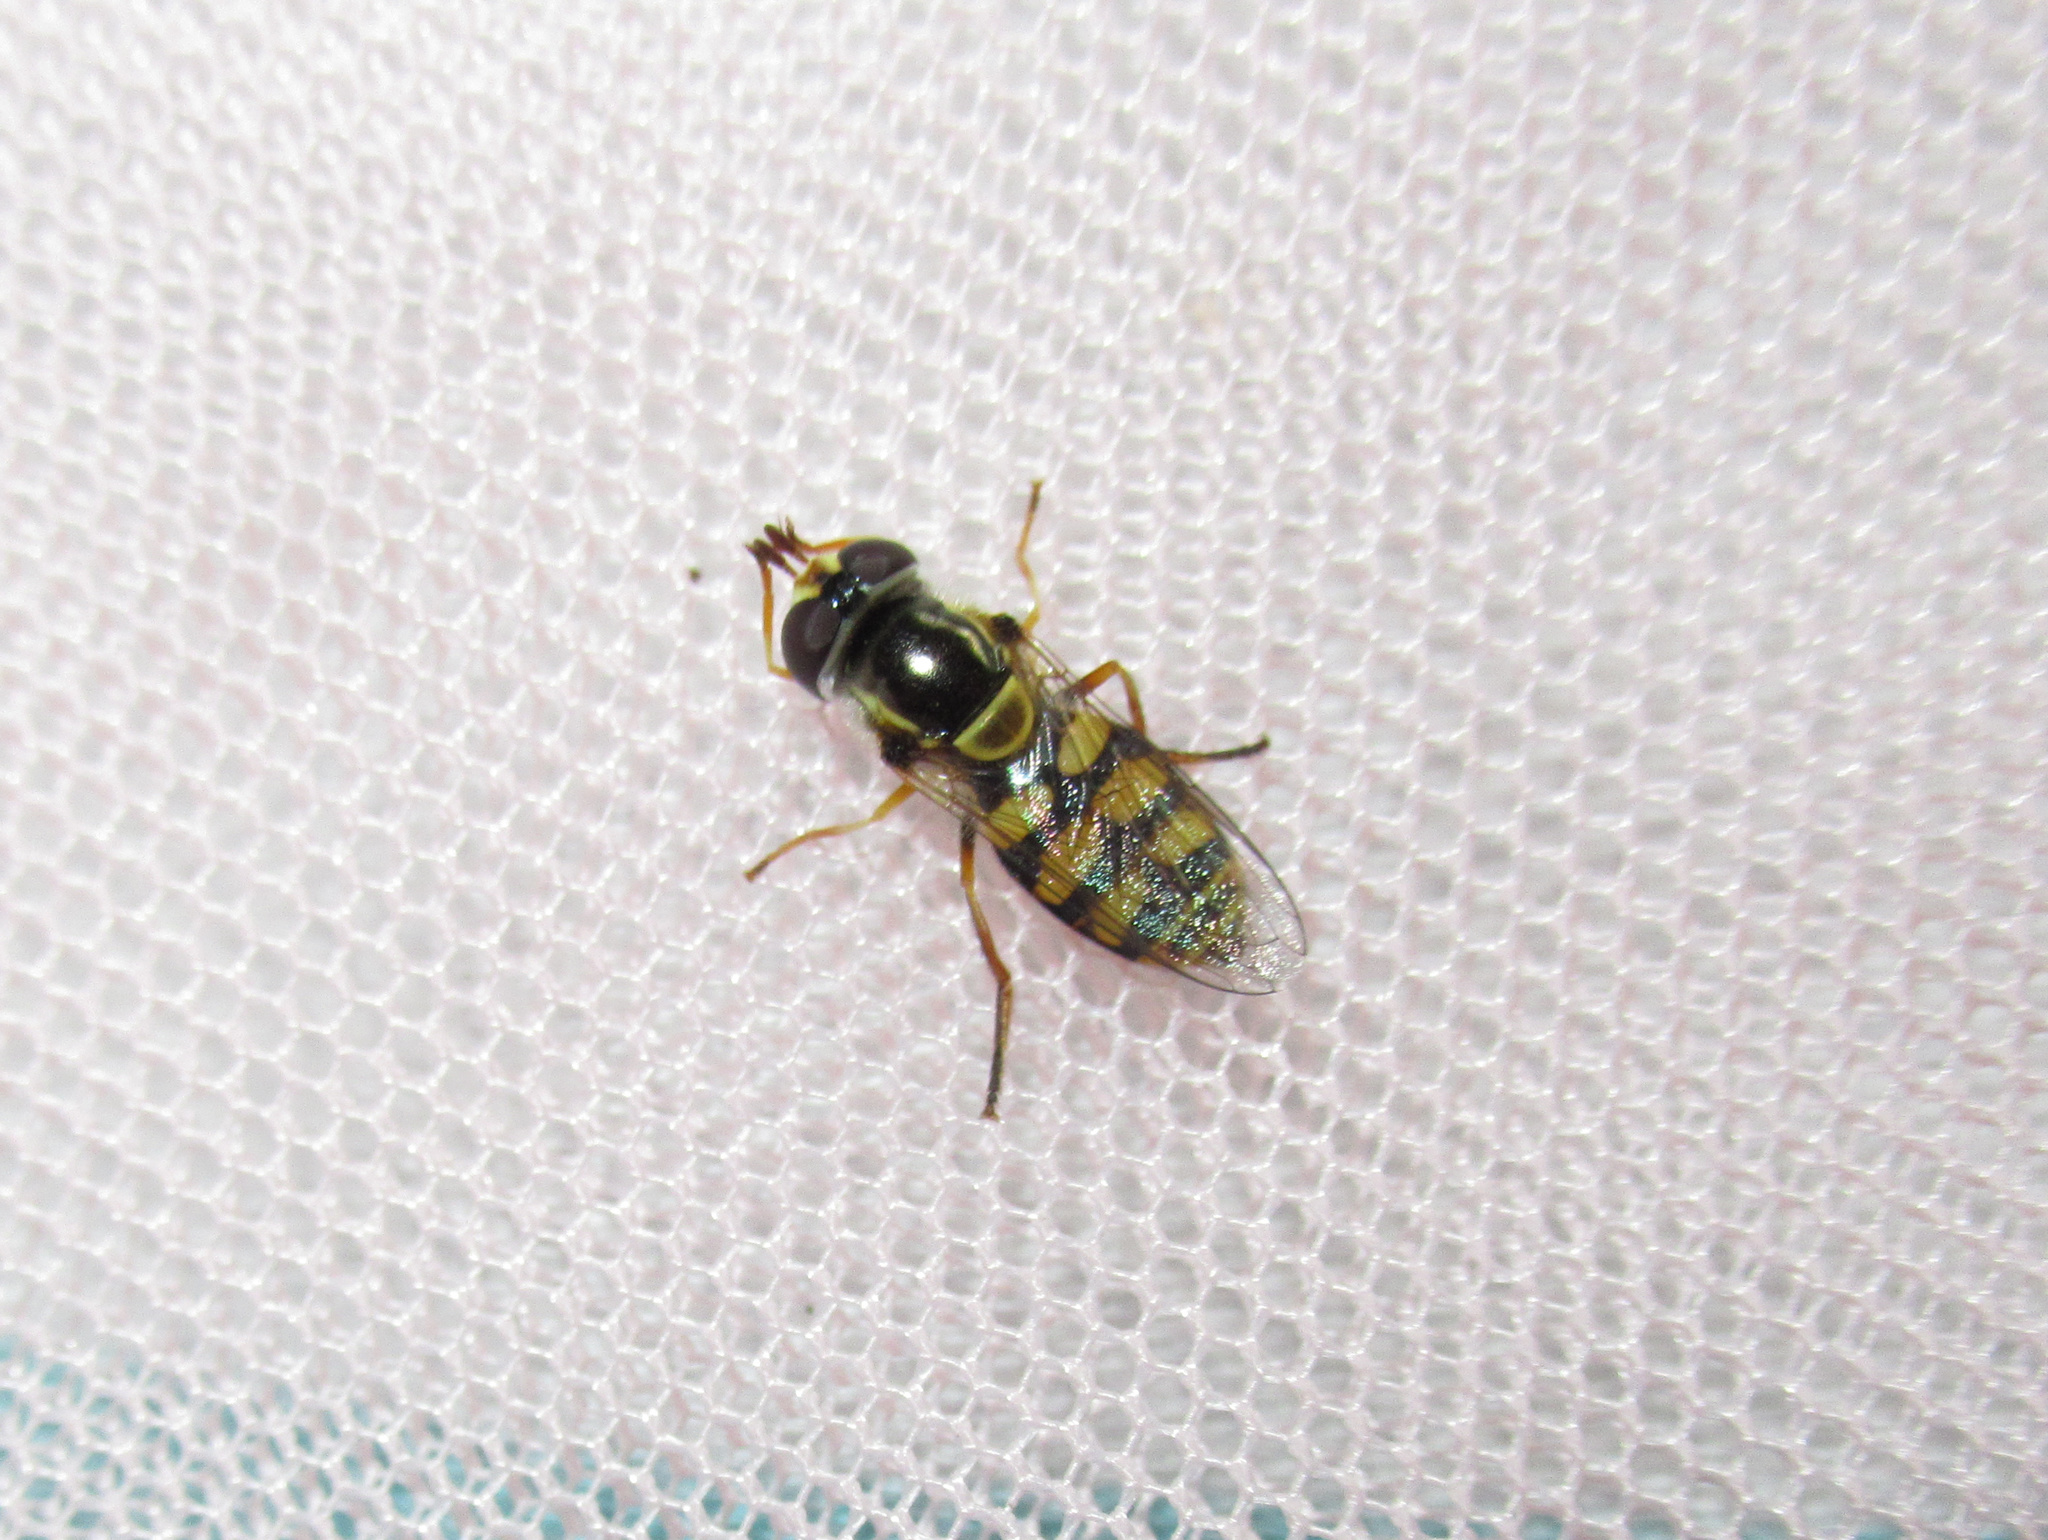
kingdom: Animalia
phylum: Arthropoda
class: Insecta
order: Diptera
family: Syrphidae
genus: Simosyrphus
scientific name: Simosyrphus grandicornis
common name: Hoverfly
